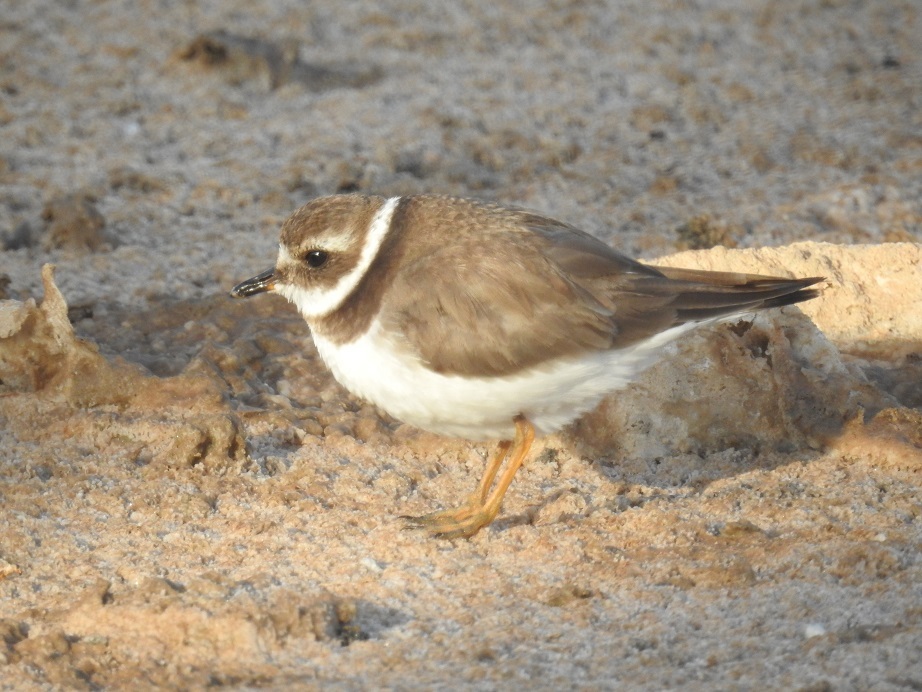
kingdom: Animalia
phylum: Chordata
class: Aves
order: Charadriiformes
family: Charadriidae
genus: Charadrius
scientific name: Charadrius hiaticula
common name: Common ringed plover
